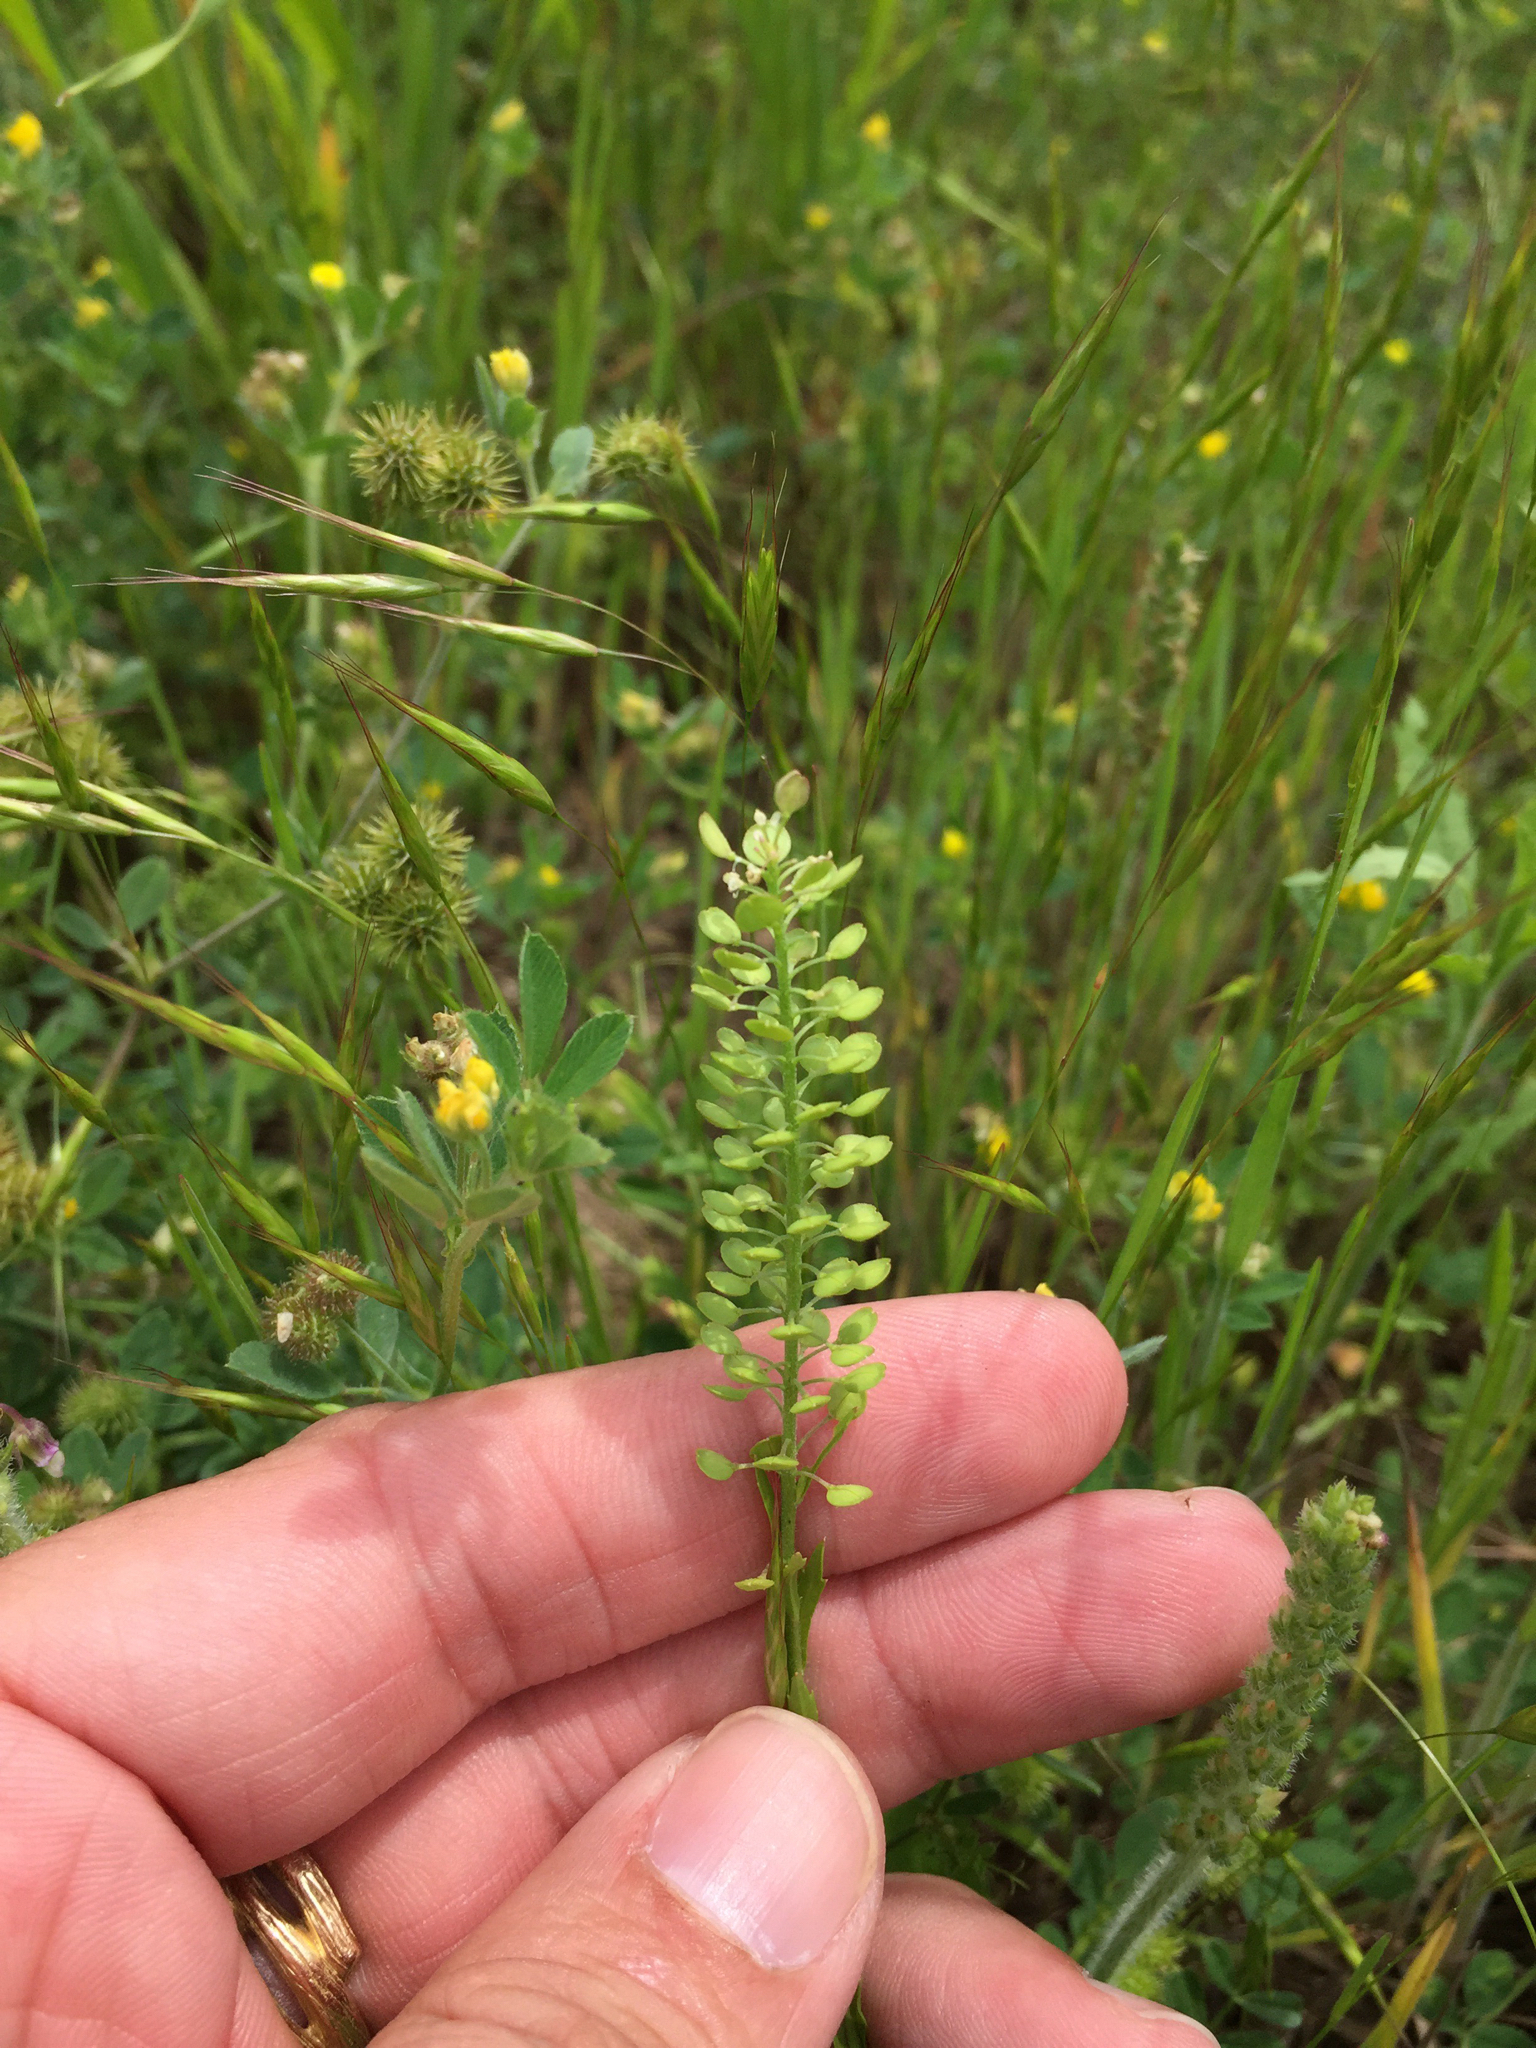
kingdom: Plantae
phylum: Tracheophyta
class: Magnoliopsida
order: Brassicales
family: Brassicaceae
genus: Lepidium
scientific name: Lepidium virginicum
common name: Least pepperwort
